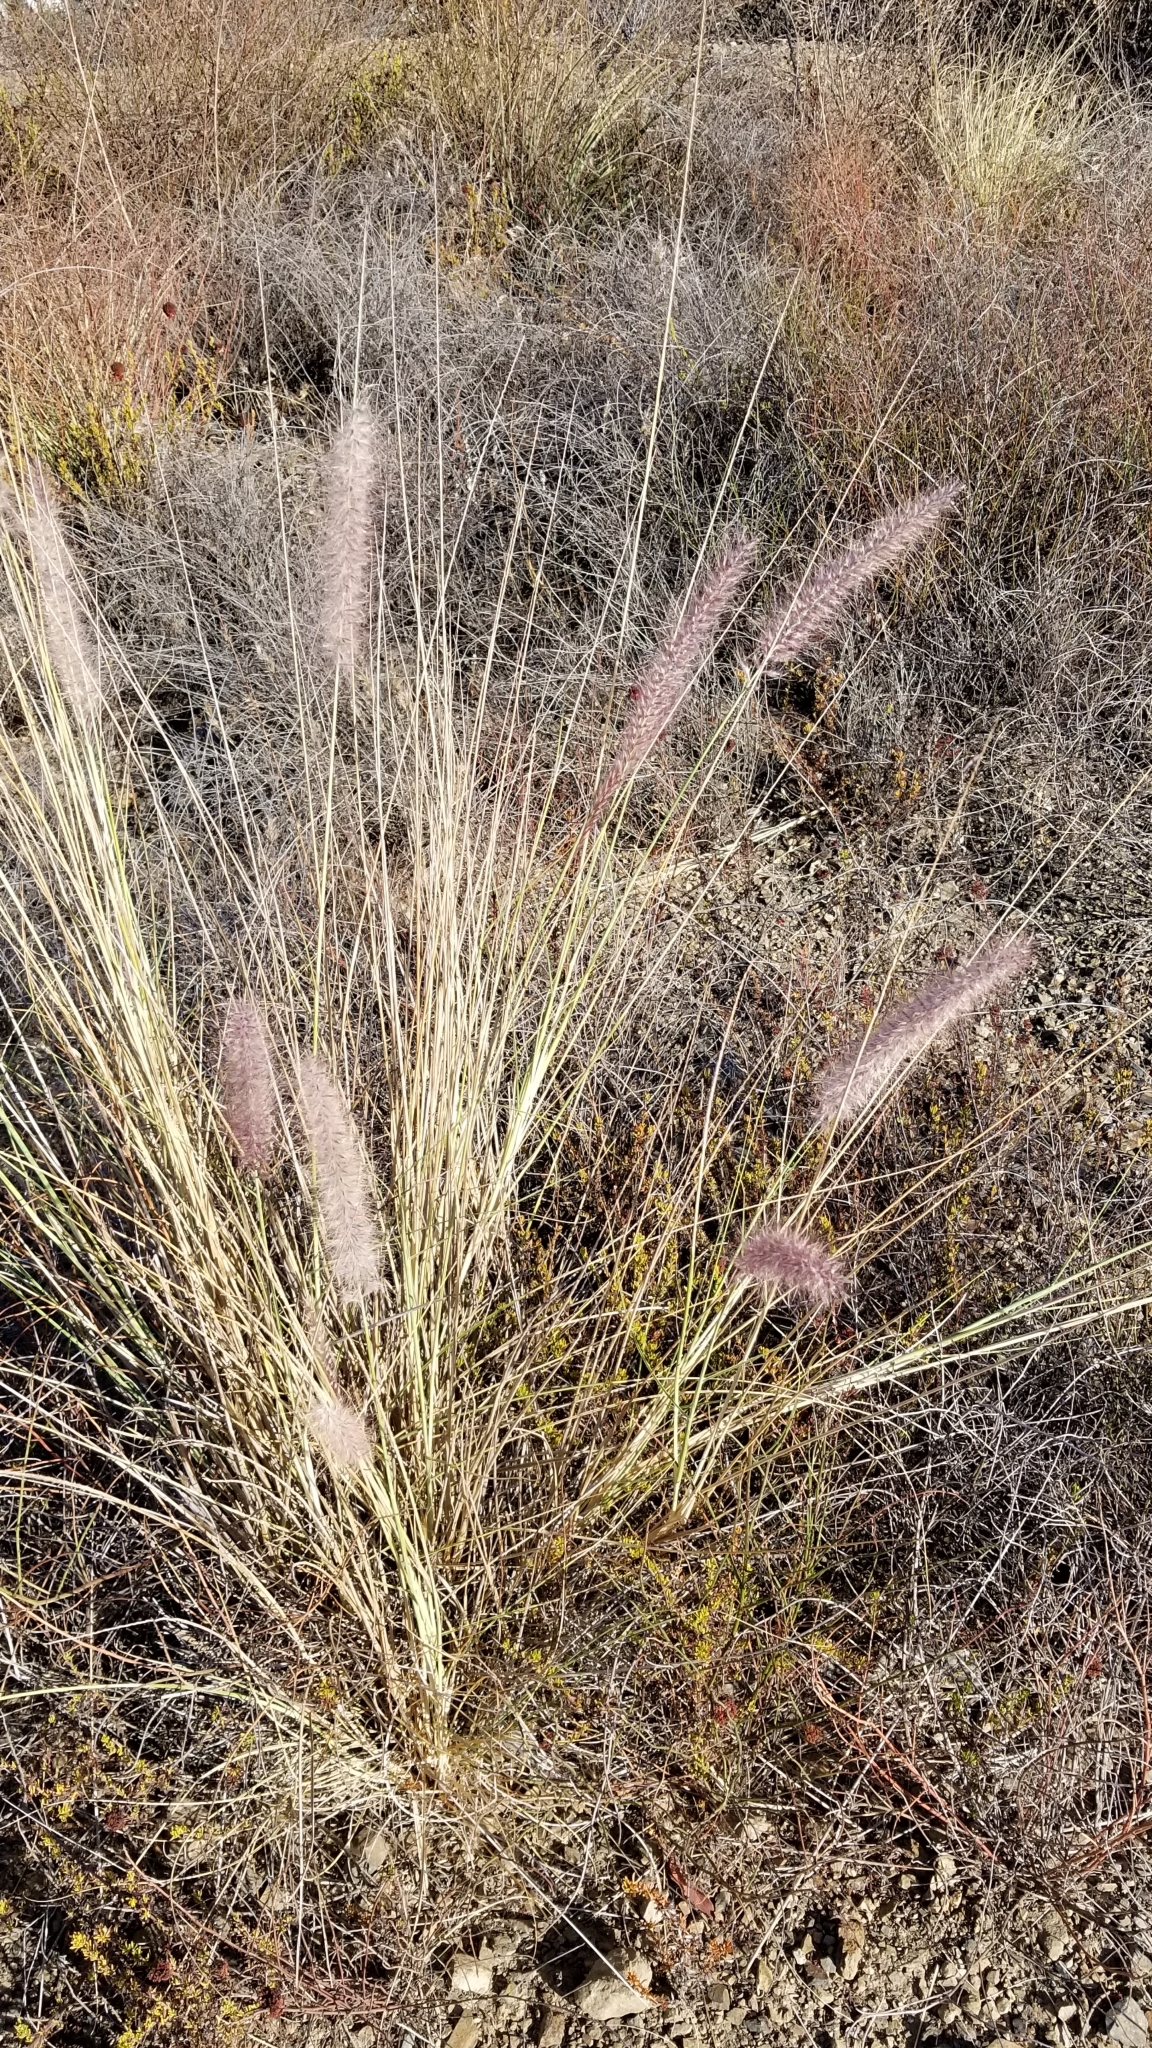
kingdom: Plantae
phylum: Tracheophyta
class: Liliopsida
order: Poales
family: Poaceae
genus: Cenchrus
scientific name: Cenchrus setaceus
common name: Crimson fountaingrass
